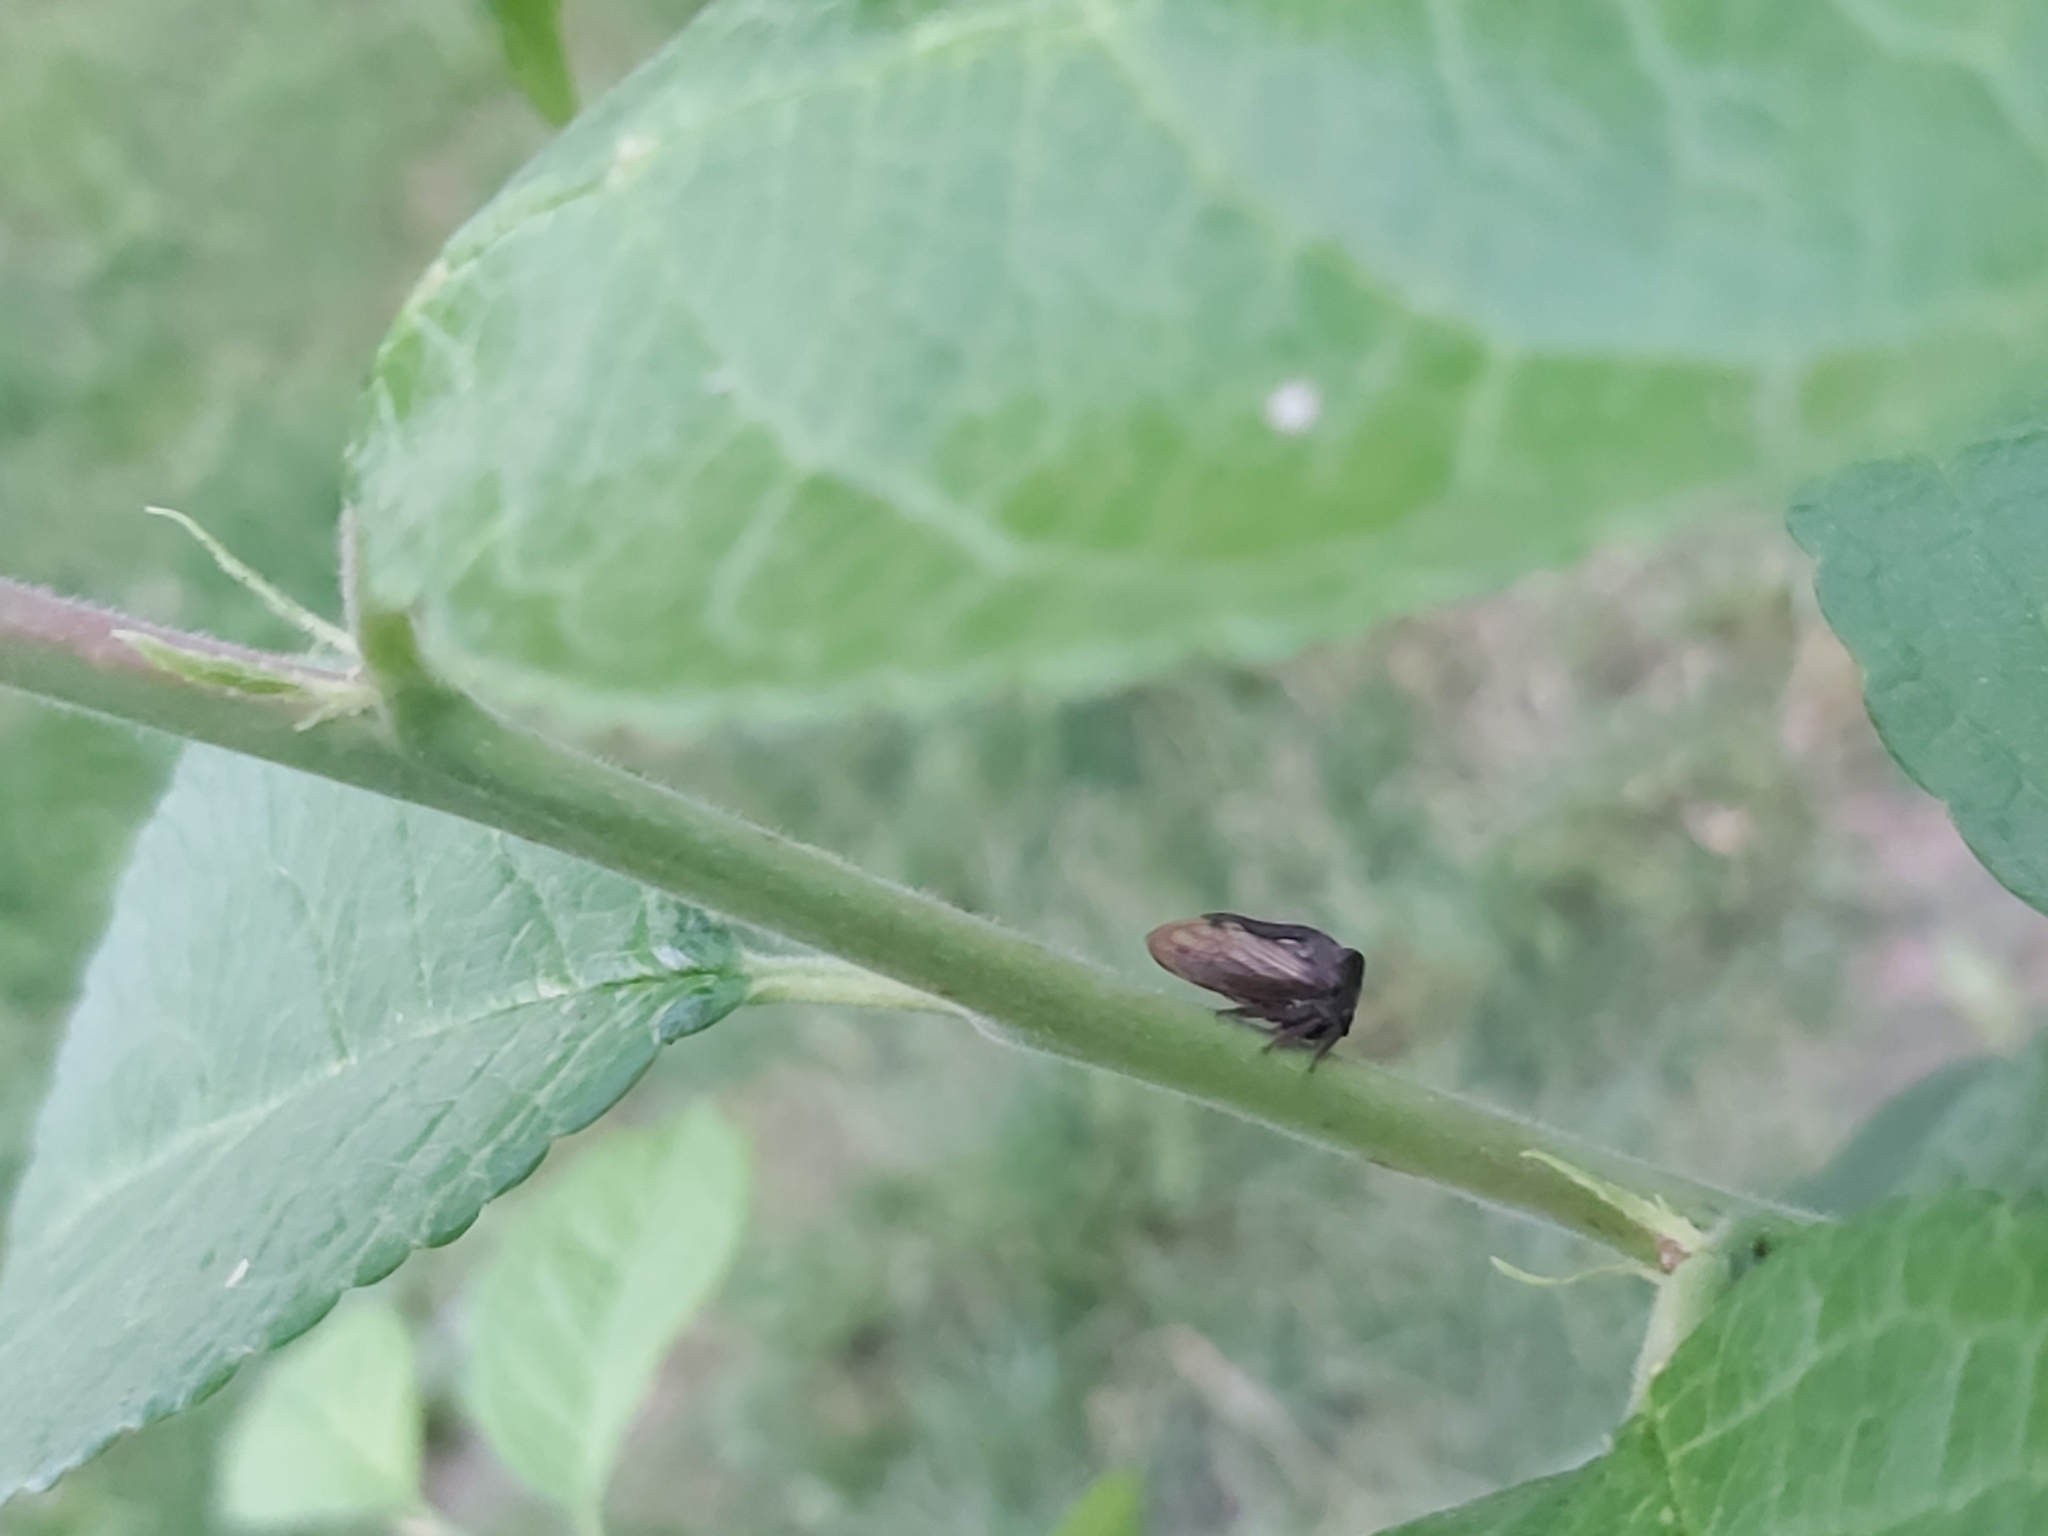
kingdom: Animalia
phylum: Arthropoda
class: Insecta
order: Hemiptera
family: Membracidae
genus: Centrotus
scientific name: Centrotus cornuta
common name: Treehopper
